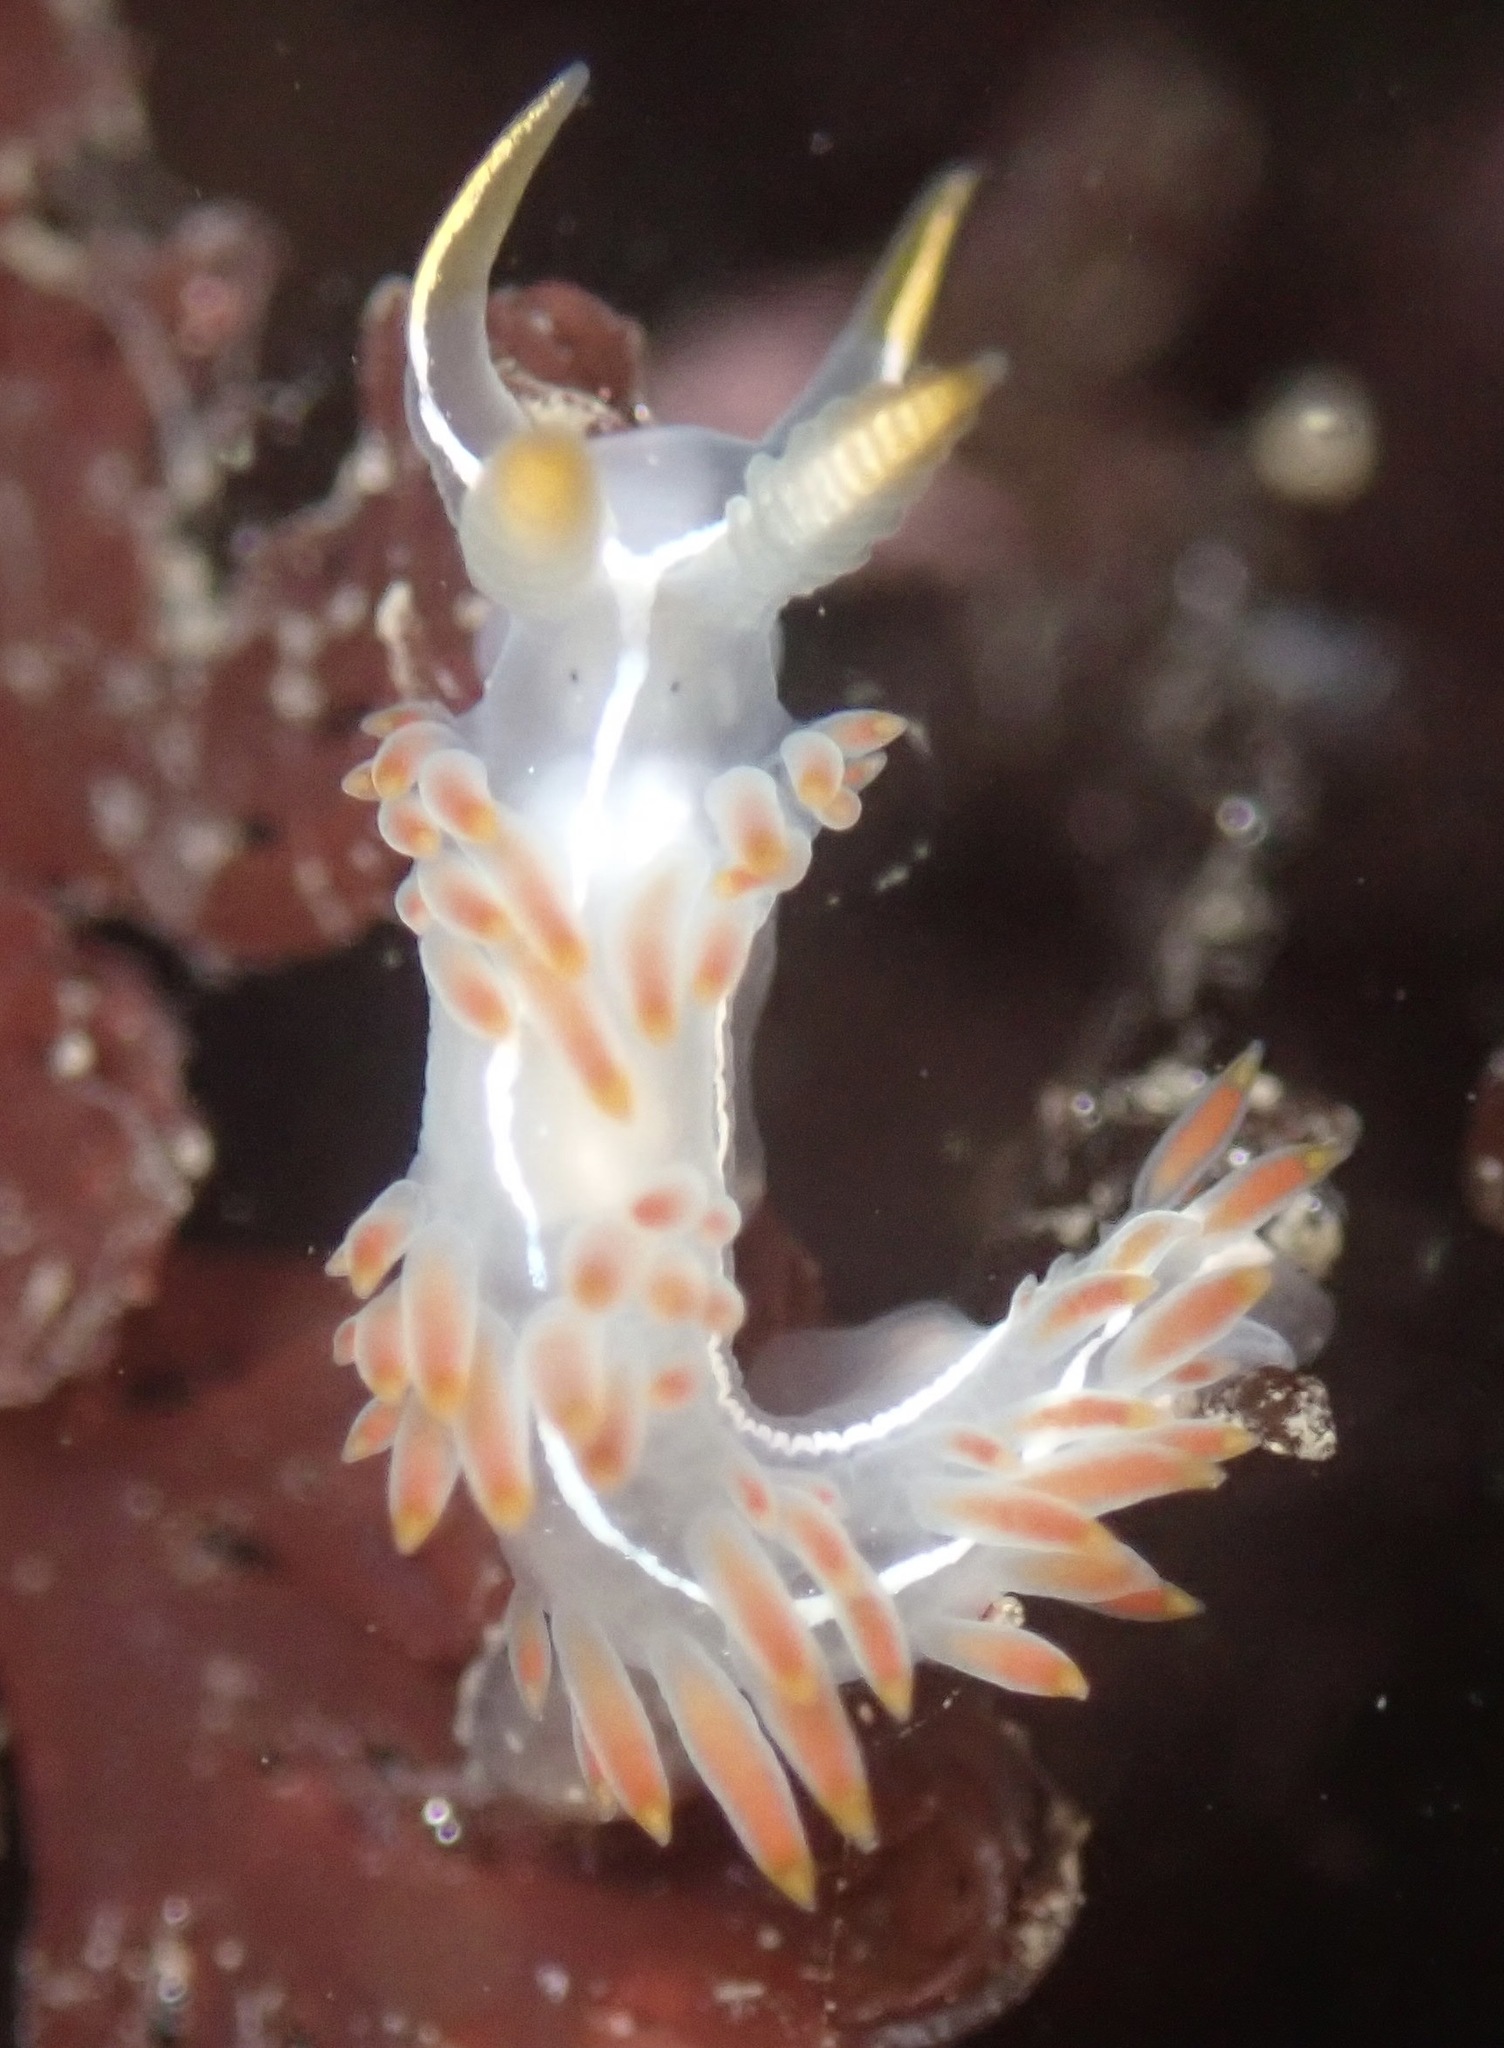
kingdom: Animalia
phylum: Mollusca
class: Gastropoda
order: Nudibranchia
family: Coryphellidae
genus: Coryphella
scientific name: Coryphella trilineata
